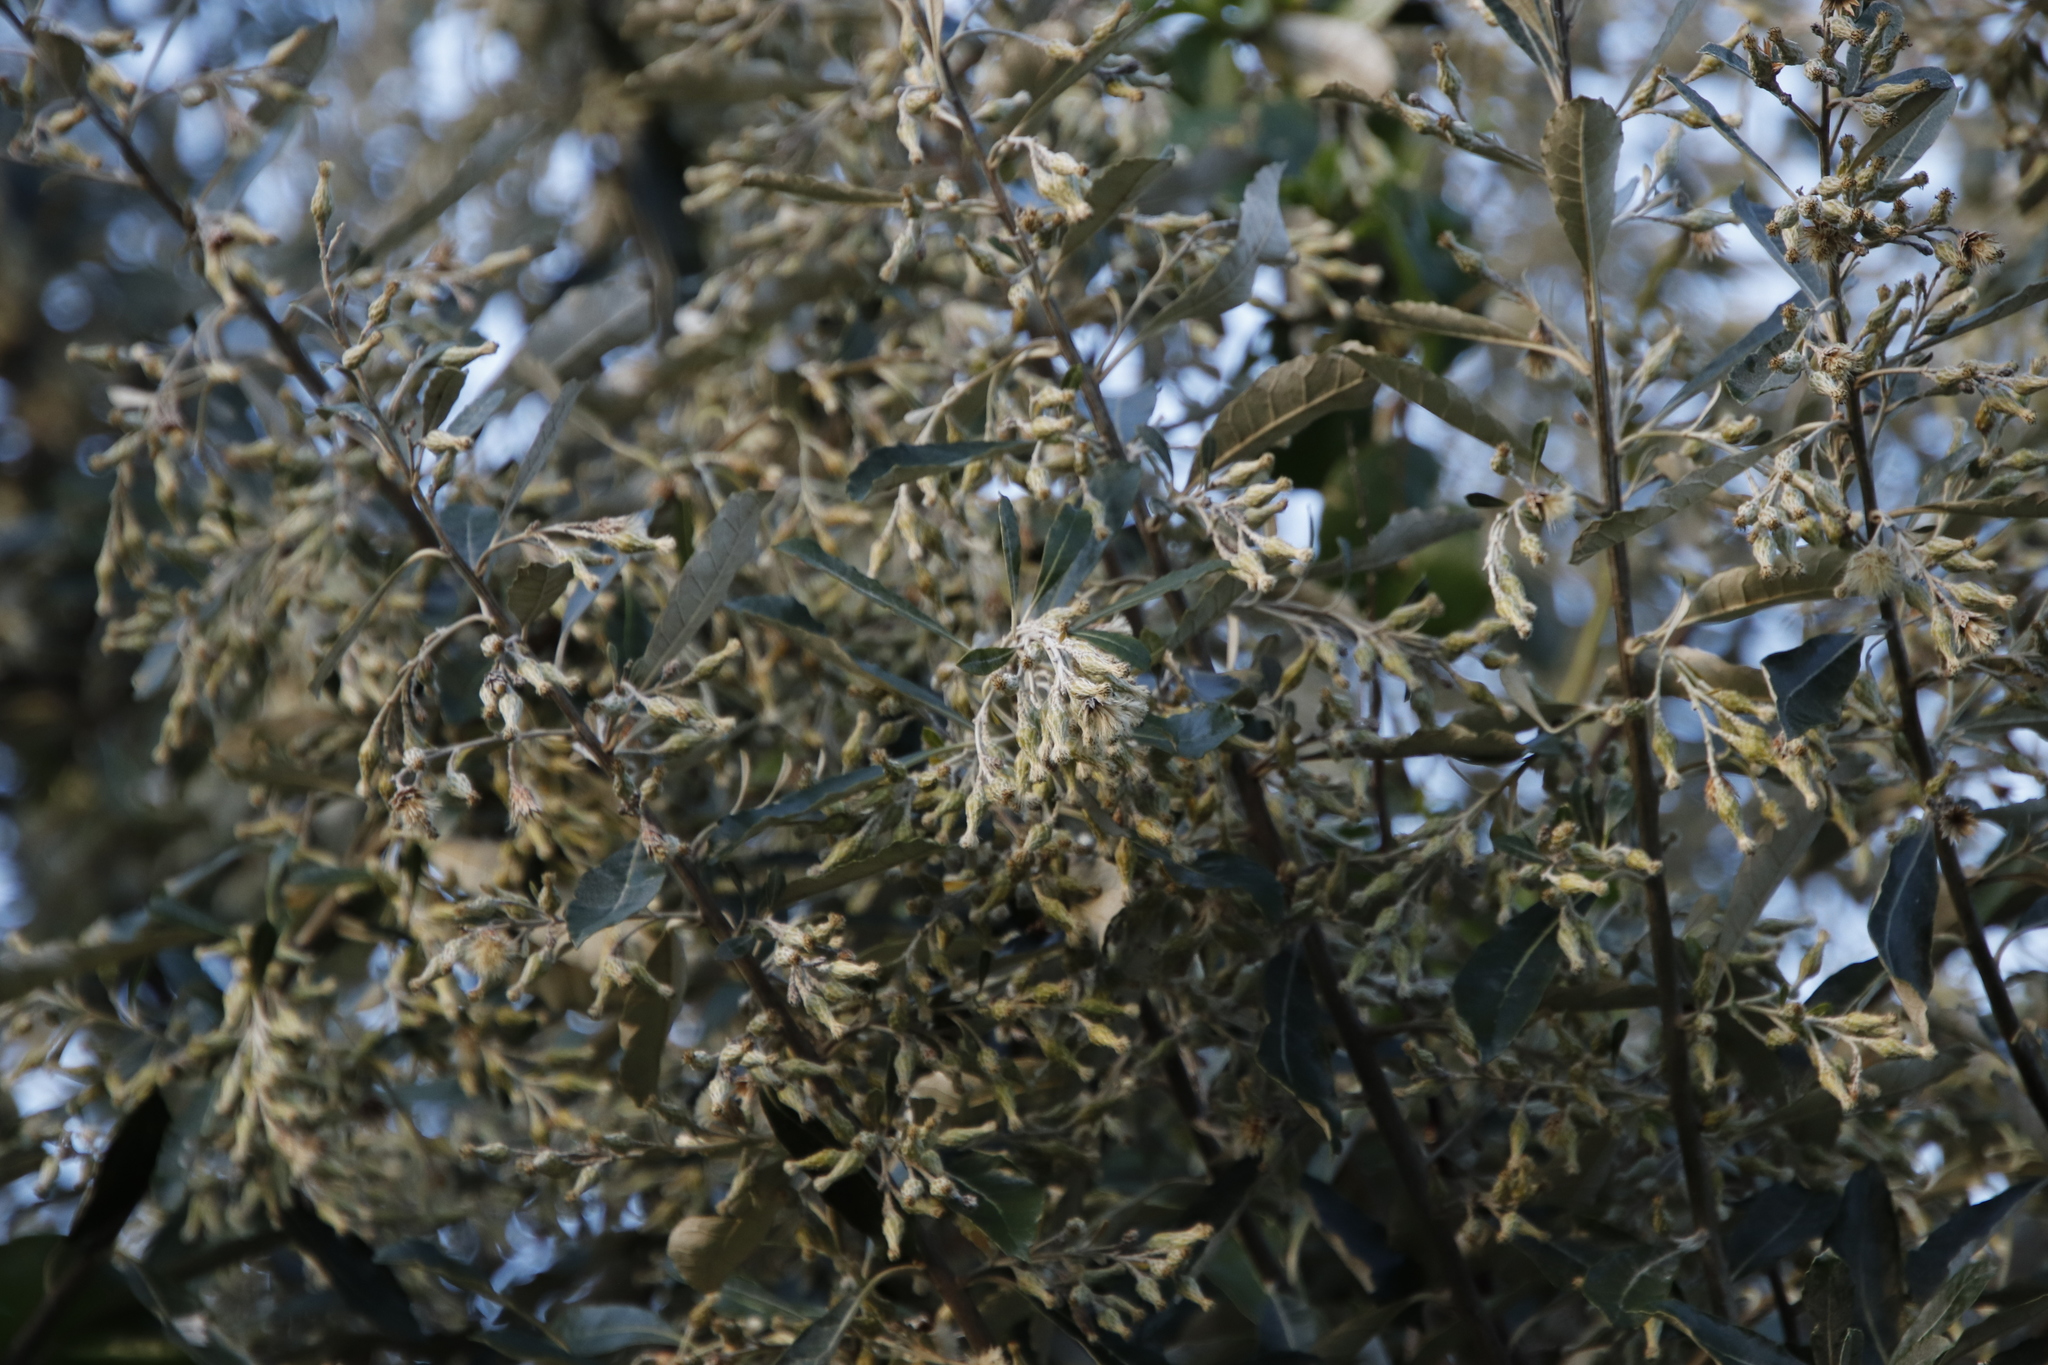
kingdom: Plantae
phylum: Tracheophyta
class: Magnoliopsida
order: Asterales
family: Asteraceae
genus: Tarchonanthus
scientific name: Tarchonanthus littoralis
